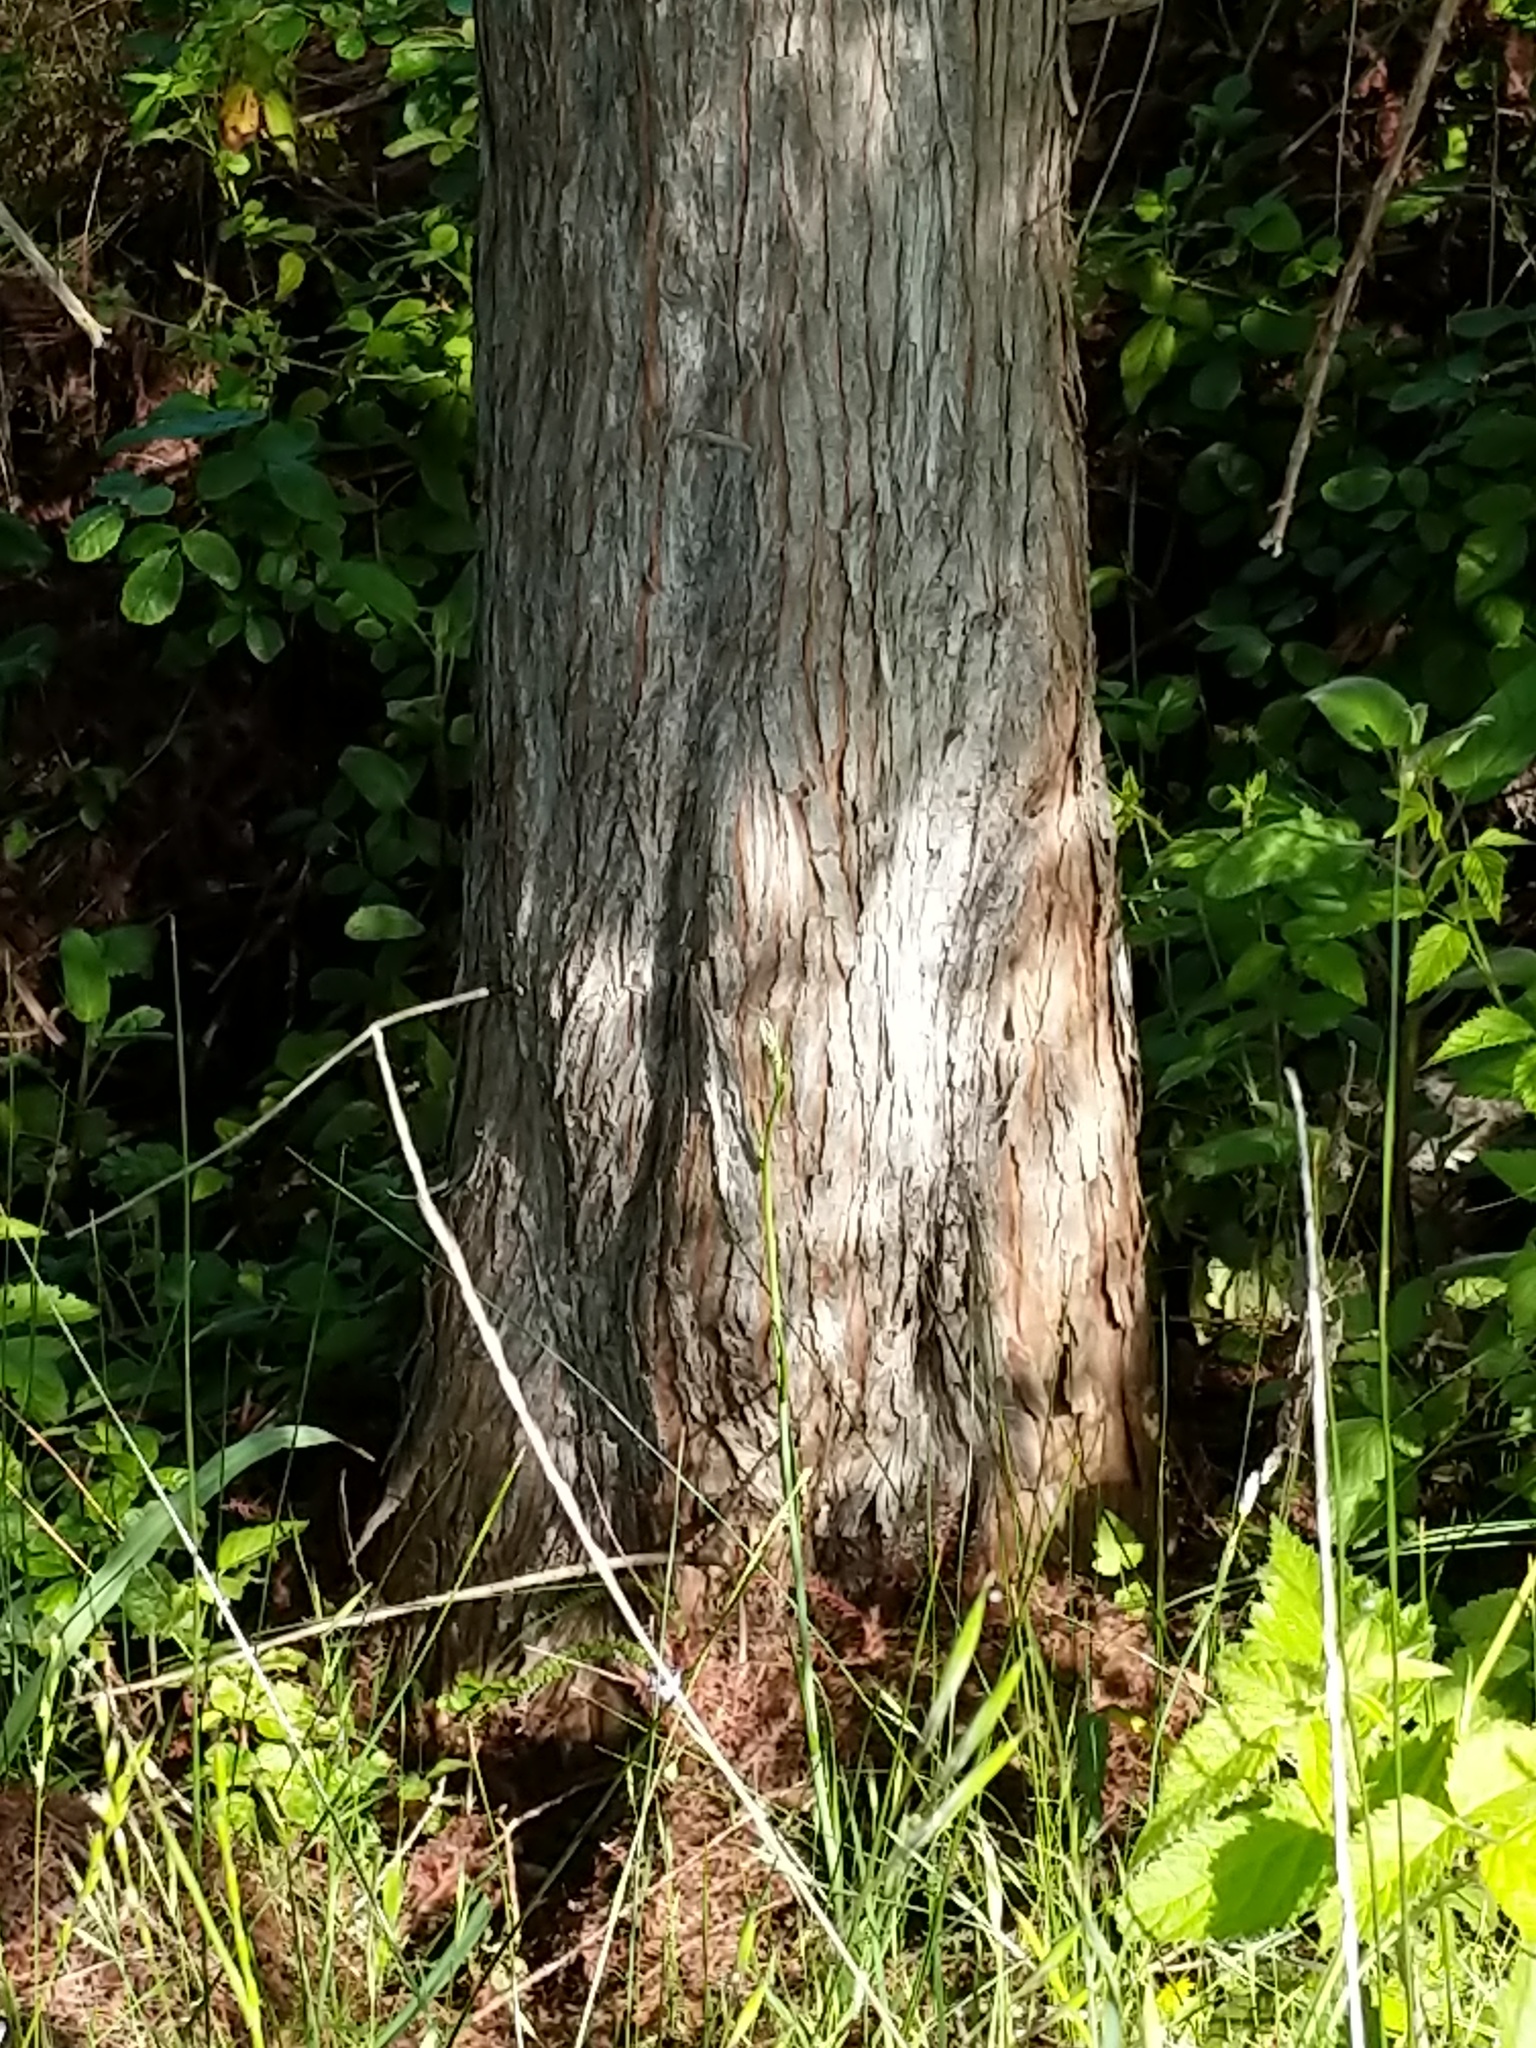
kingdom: Plantae
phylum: Tracheophyta
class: Pinopsida
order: Pinales
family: Cupressaceae
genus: Sequoia
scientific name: Sequoia sempervirens
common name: Coast redwood
